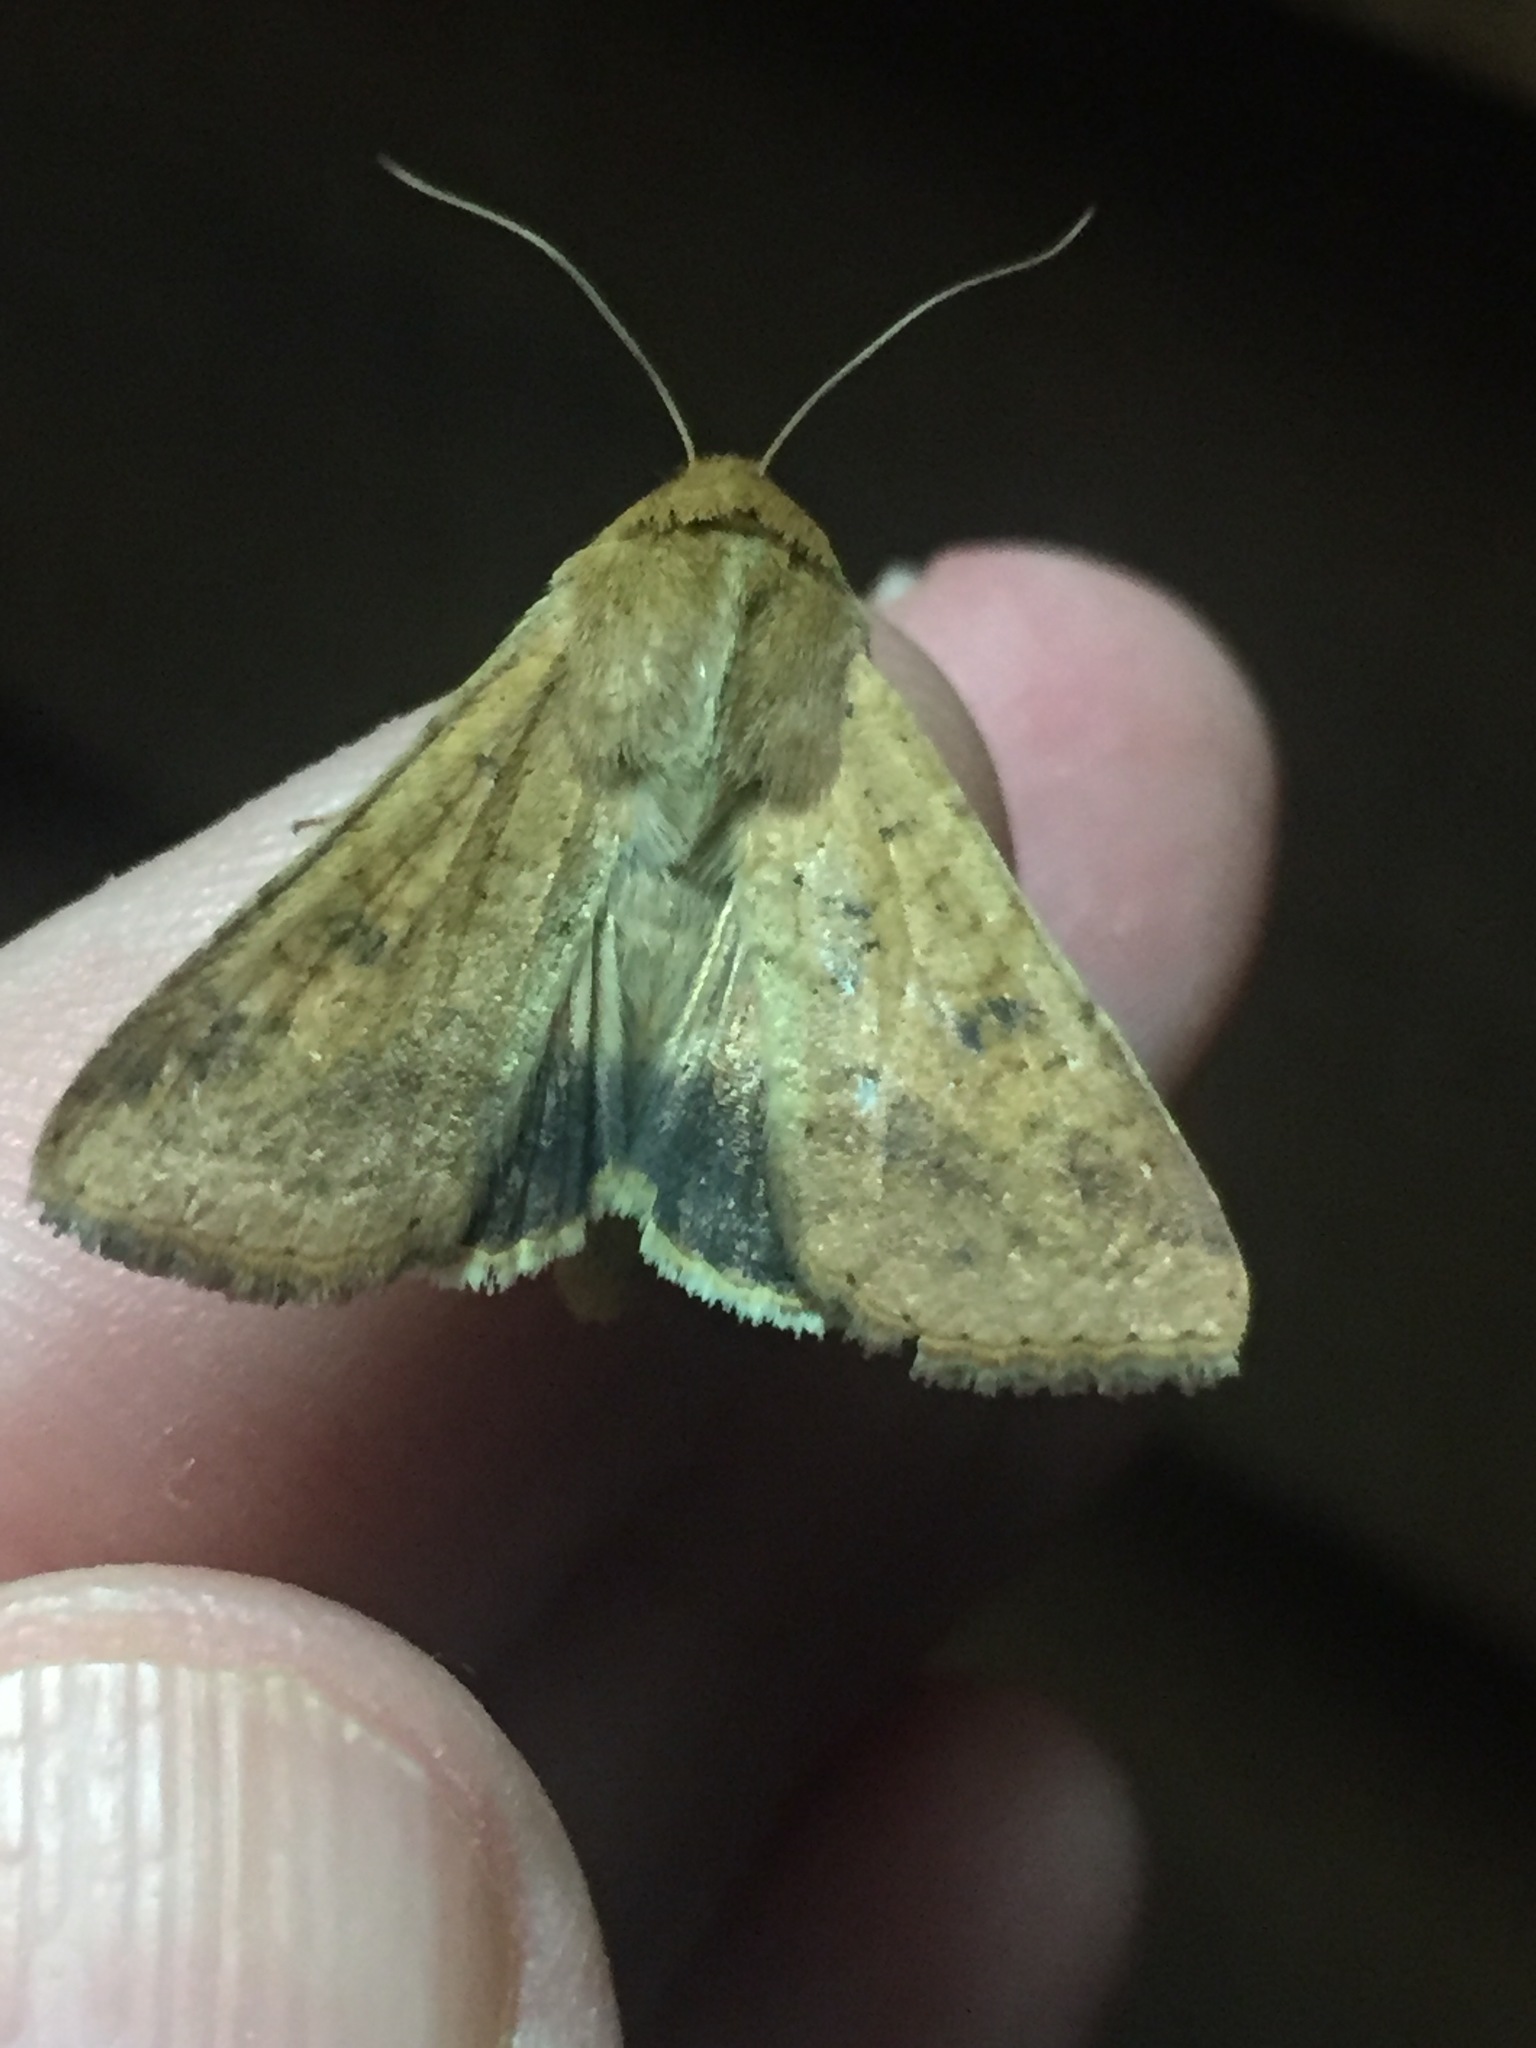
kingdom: Animalia
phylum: Arthropoda
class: Insecta
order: Lepidoptera
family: Noctuidae
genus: Helicoverpa
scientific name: Helicoverpa armigera
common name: Cotton bollworm
